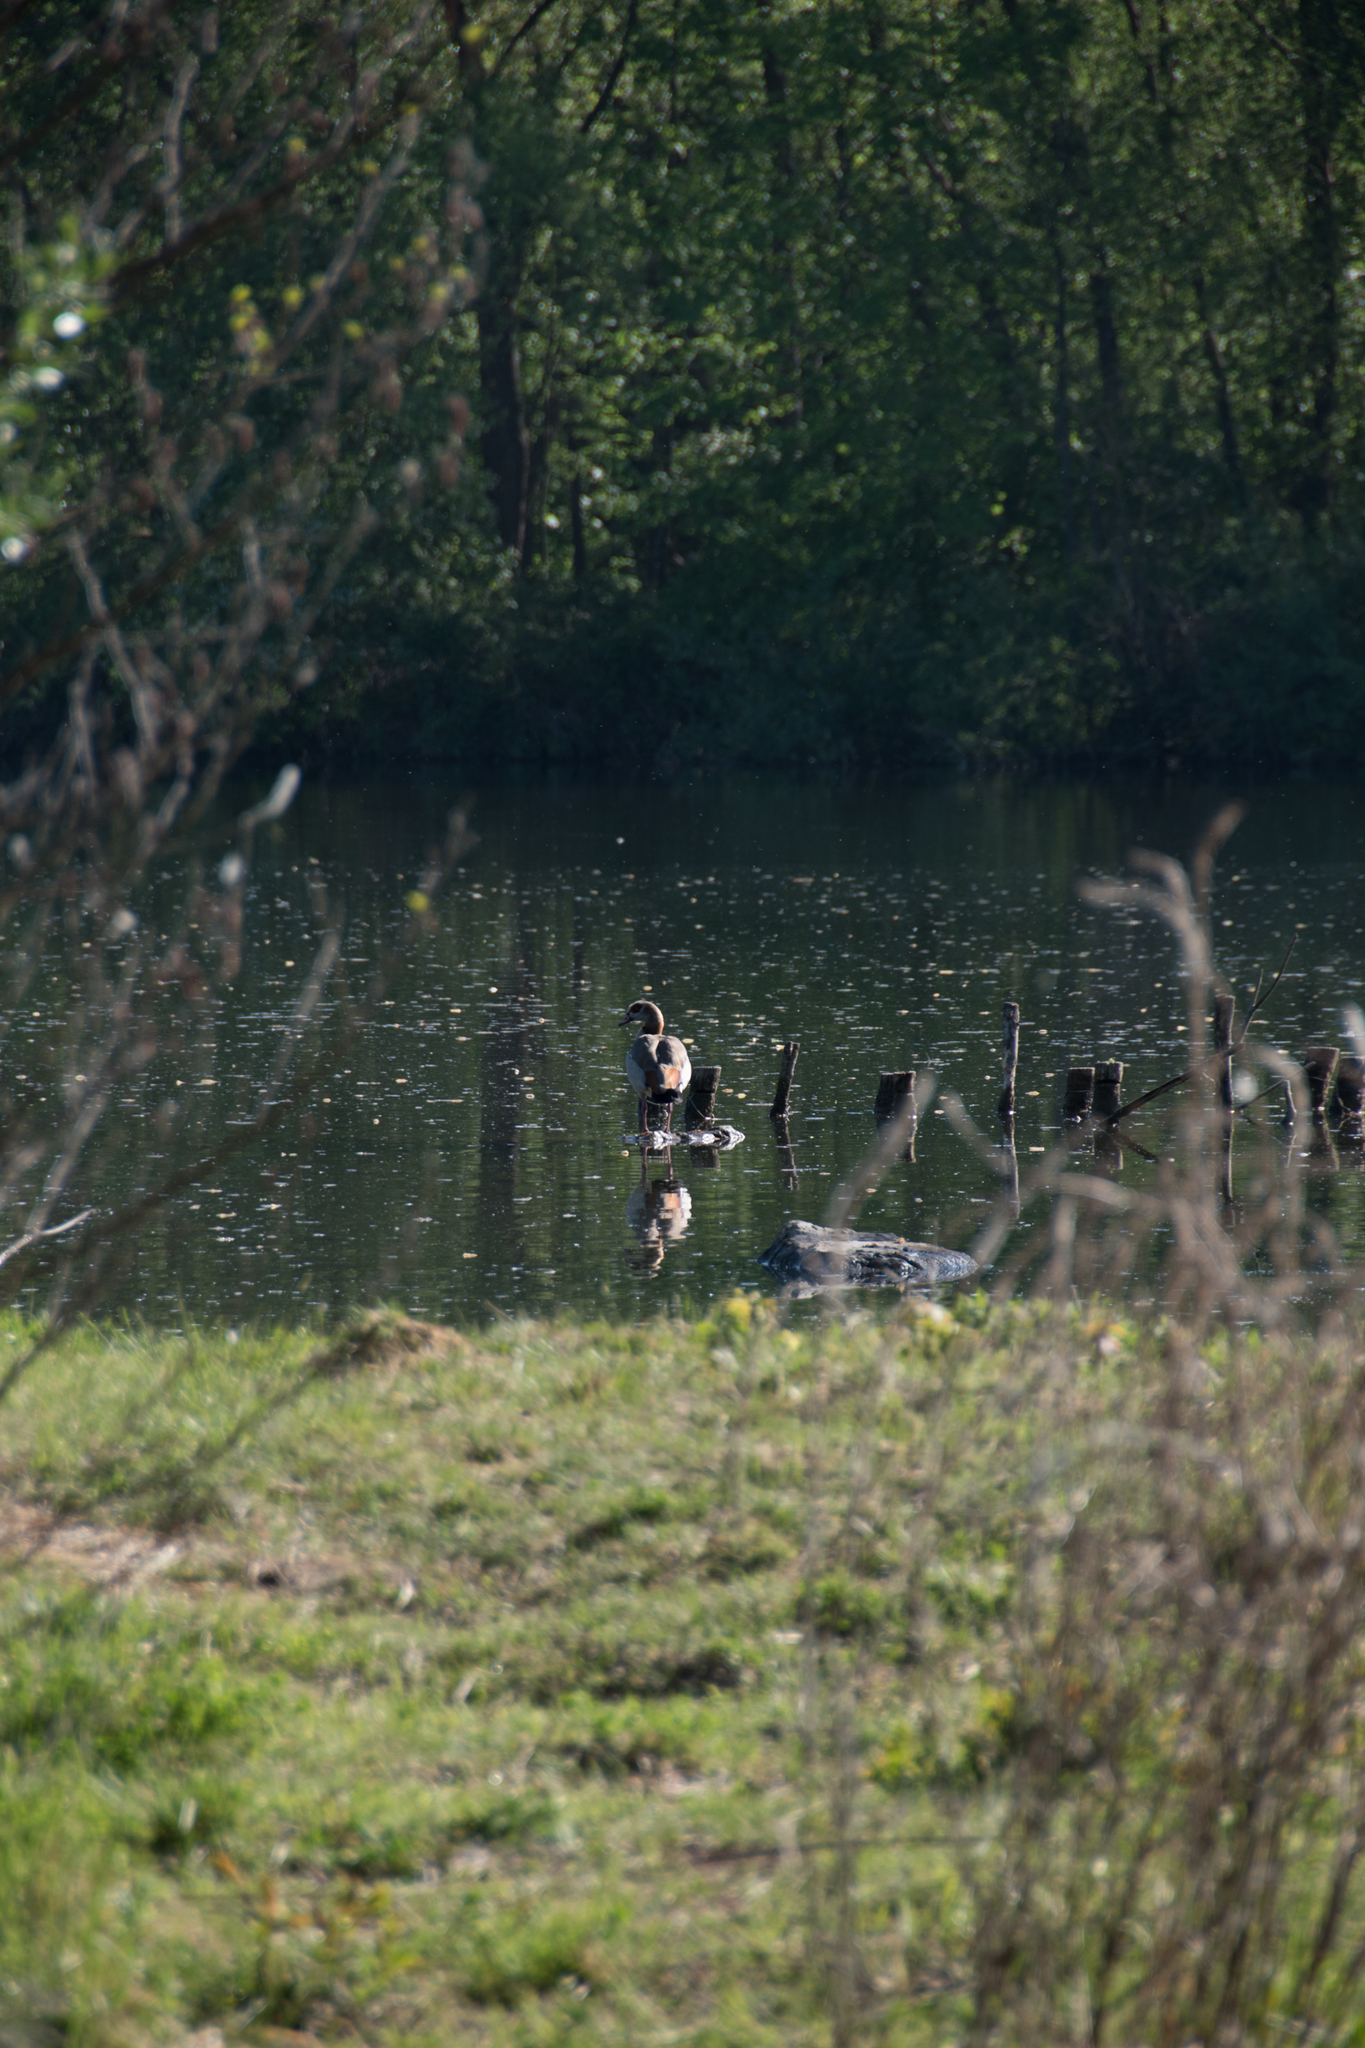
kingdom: Animalia
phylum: Chordata
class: Aves
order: Anseriformes
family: Anatidae
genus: Alopochen
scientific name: Alopochen aegyptiaca
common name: Egyptian goose
